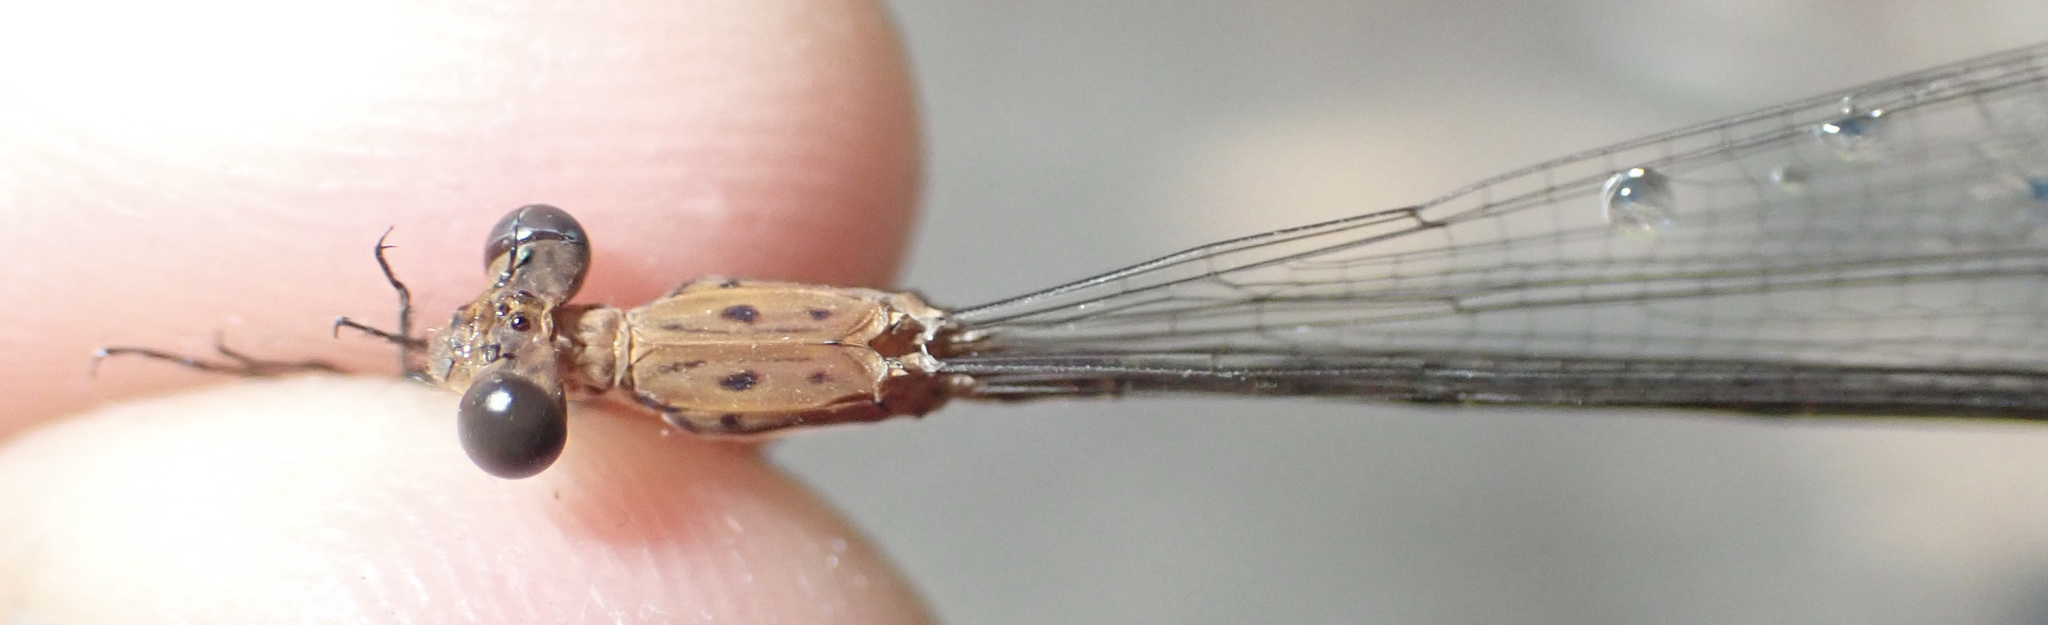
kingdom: Animalia
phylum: Arthropoda
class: Insecta
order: Odonata
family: Lestidae
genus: Lestes
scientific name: Lestes pinheyi
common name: Pinhey's spreadwing
